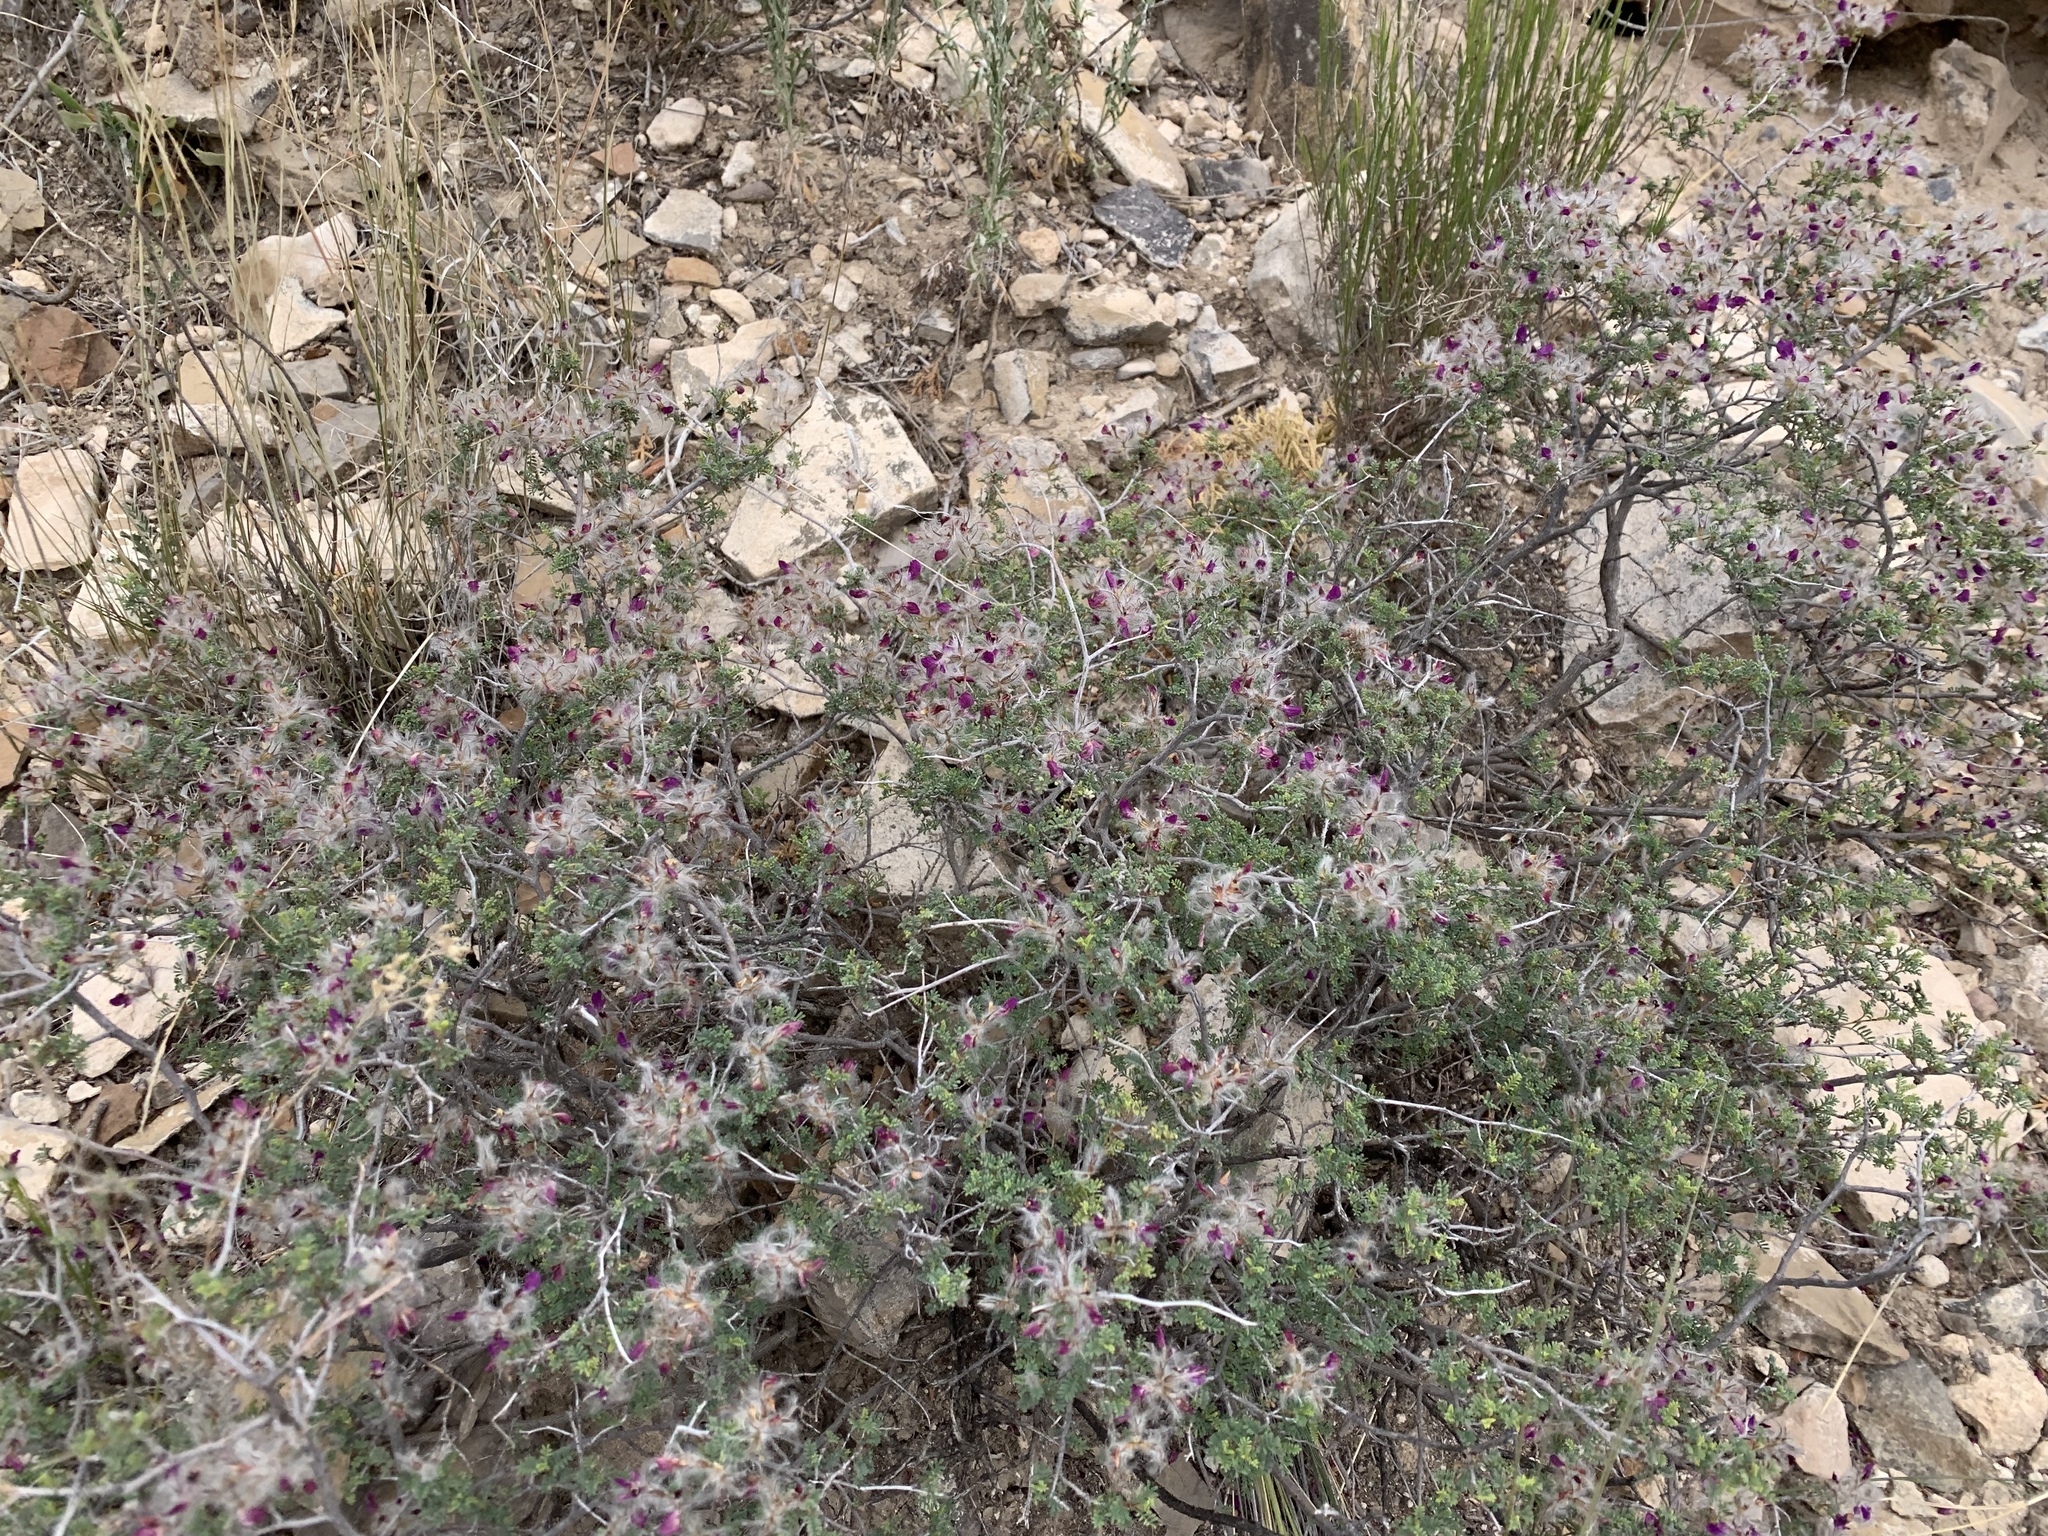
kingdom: Plantae
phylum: Tracheophyta
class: Magnoliopsida
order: Fabales
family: Fabaceae
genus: Dalea
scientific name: Dalea formosa
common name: Feather-plume dalea
